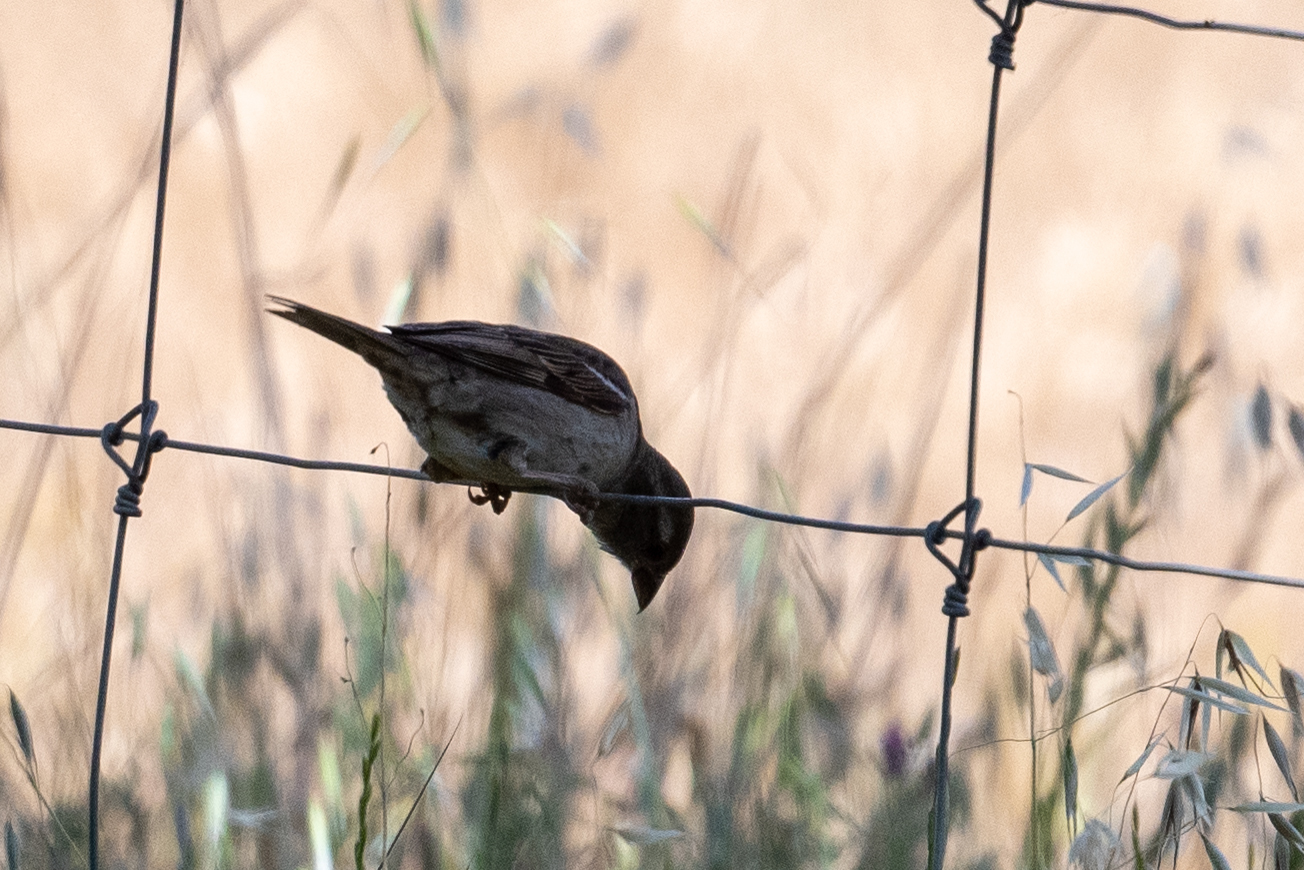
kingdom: Animalia
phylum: Chordata
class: Aves
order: Passeriformes
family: Passeridae
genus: Passer
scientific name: Passer domesticus
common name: House sparrow
